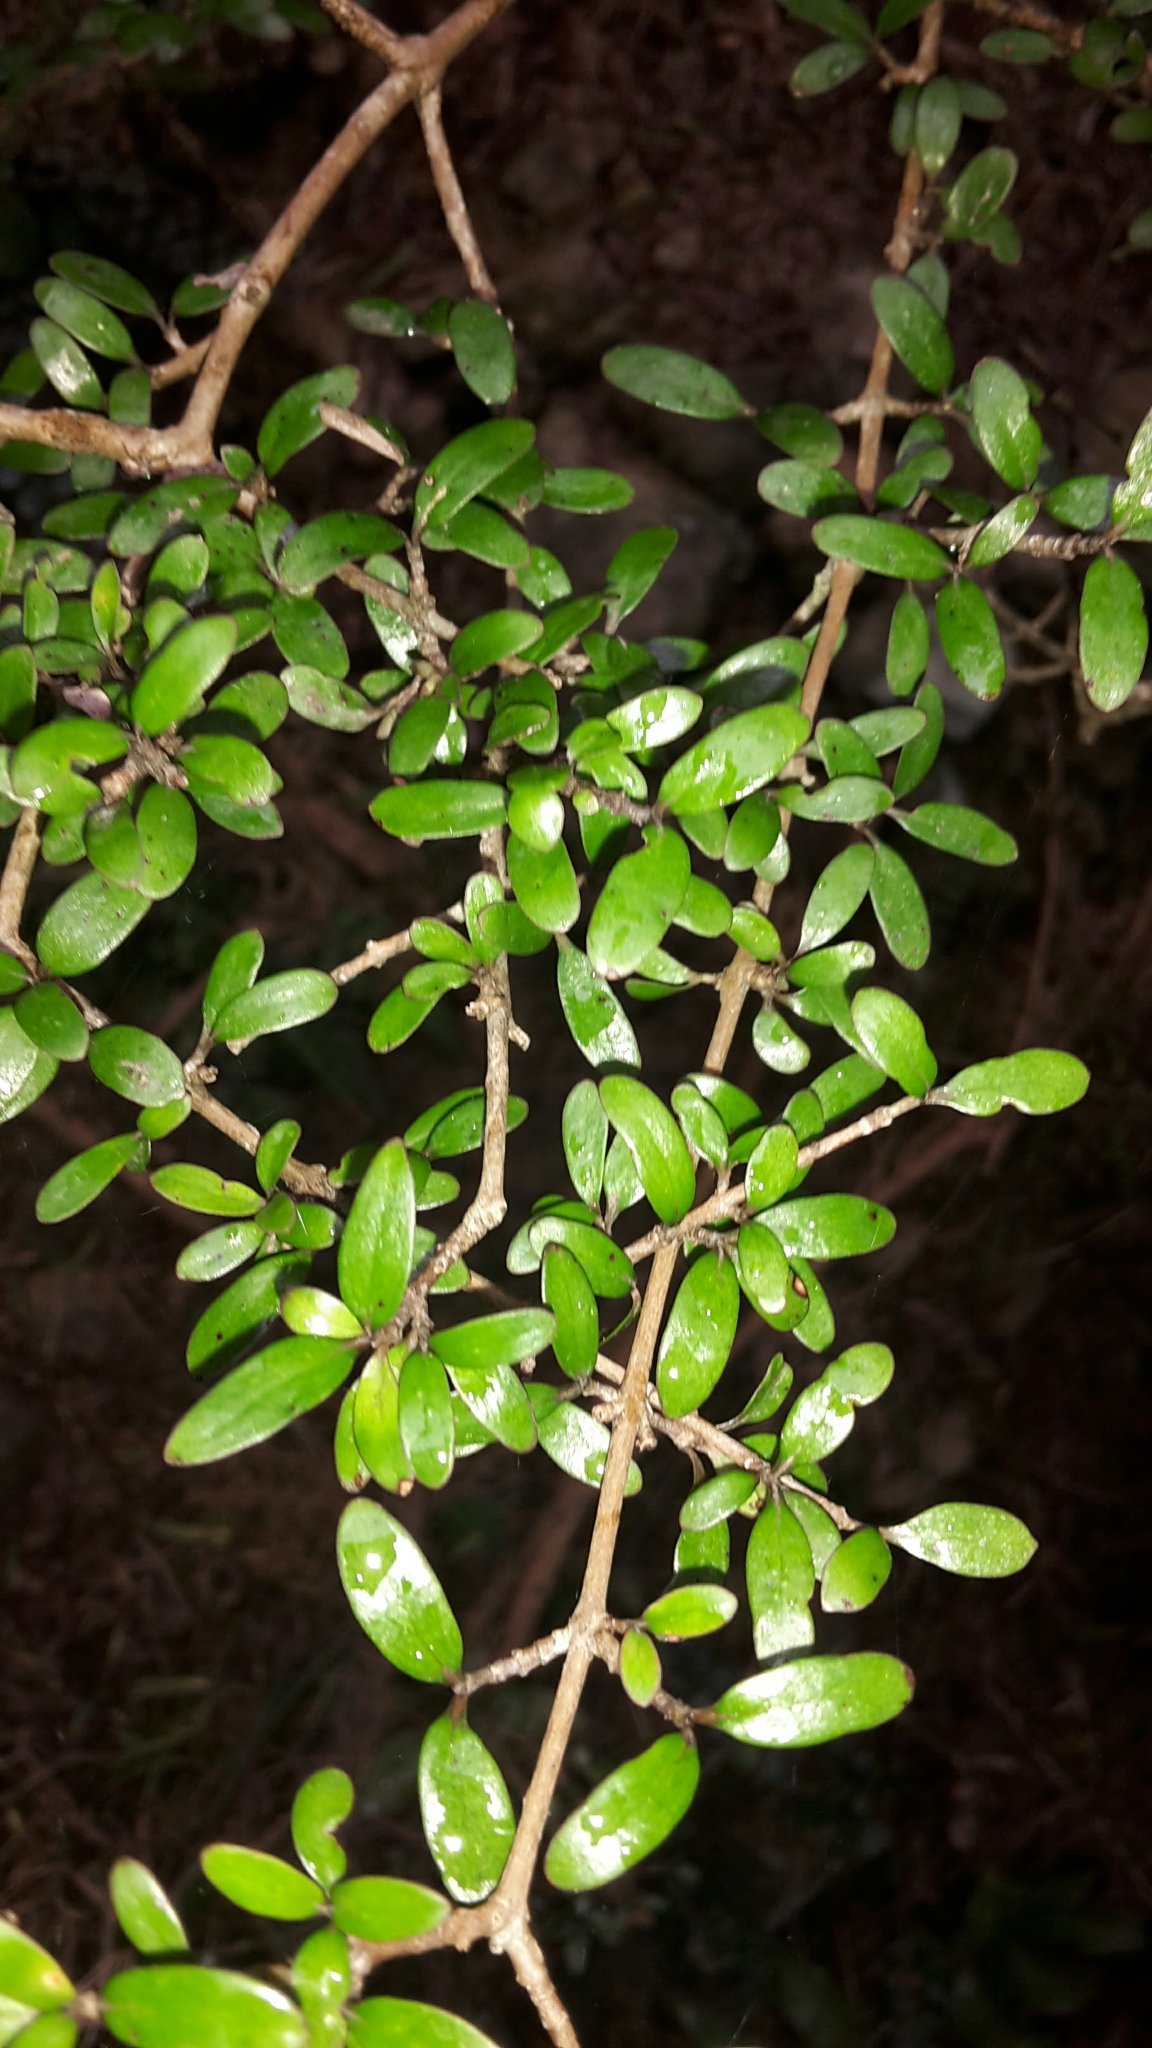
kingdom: Plantae
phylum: Tracheophyta
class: Magnoliopsida
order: Gentianales
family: Rubiaceae
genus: Coprosma
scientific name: Coprosma propinqua
